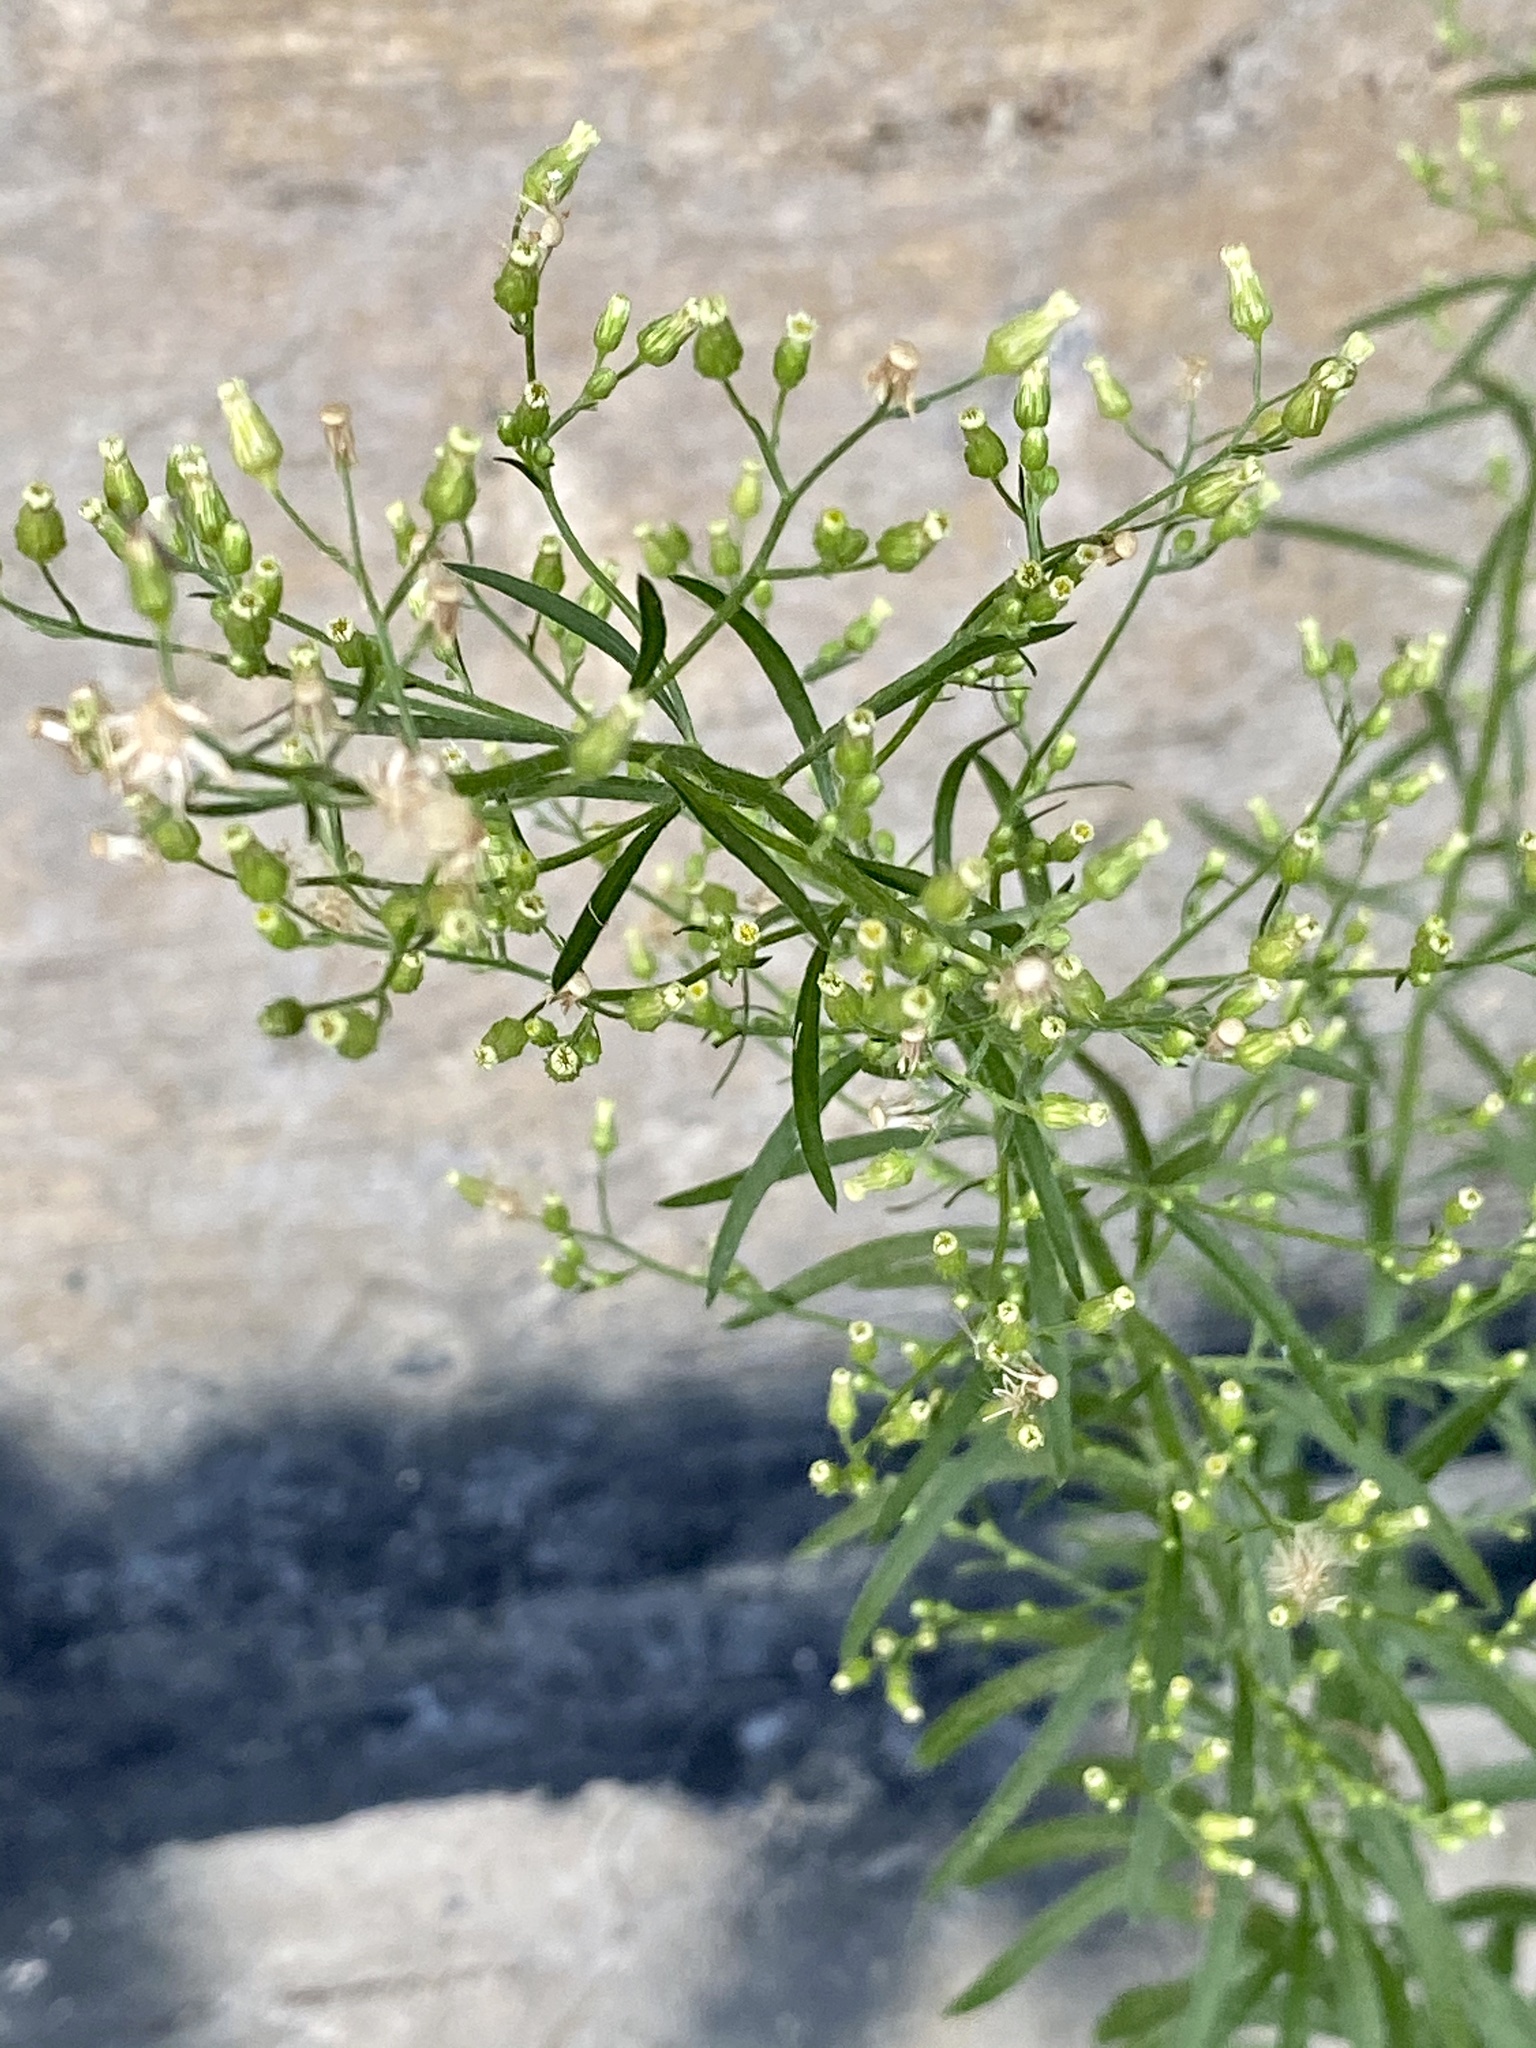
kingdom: Plantae
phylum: Tracheophyta
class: Magnoliopsida
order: Asterales
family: Asteraceae
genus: Erigeron
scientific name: Erigeron canadensis
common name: Canadian fleabane
